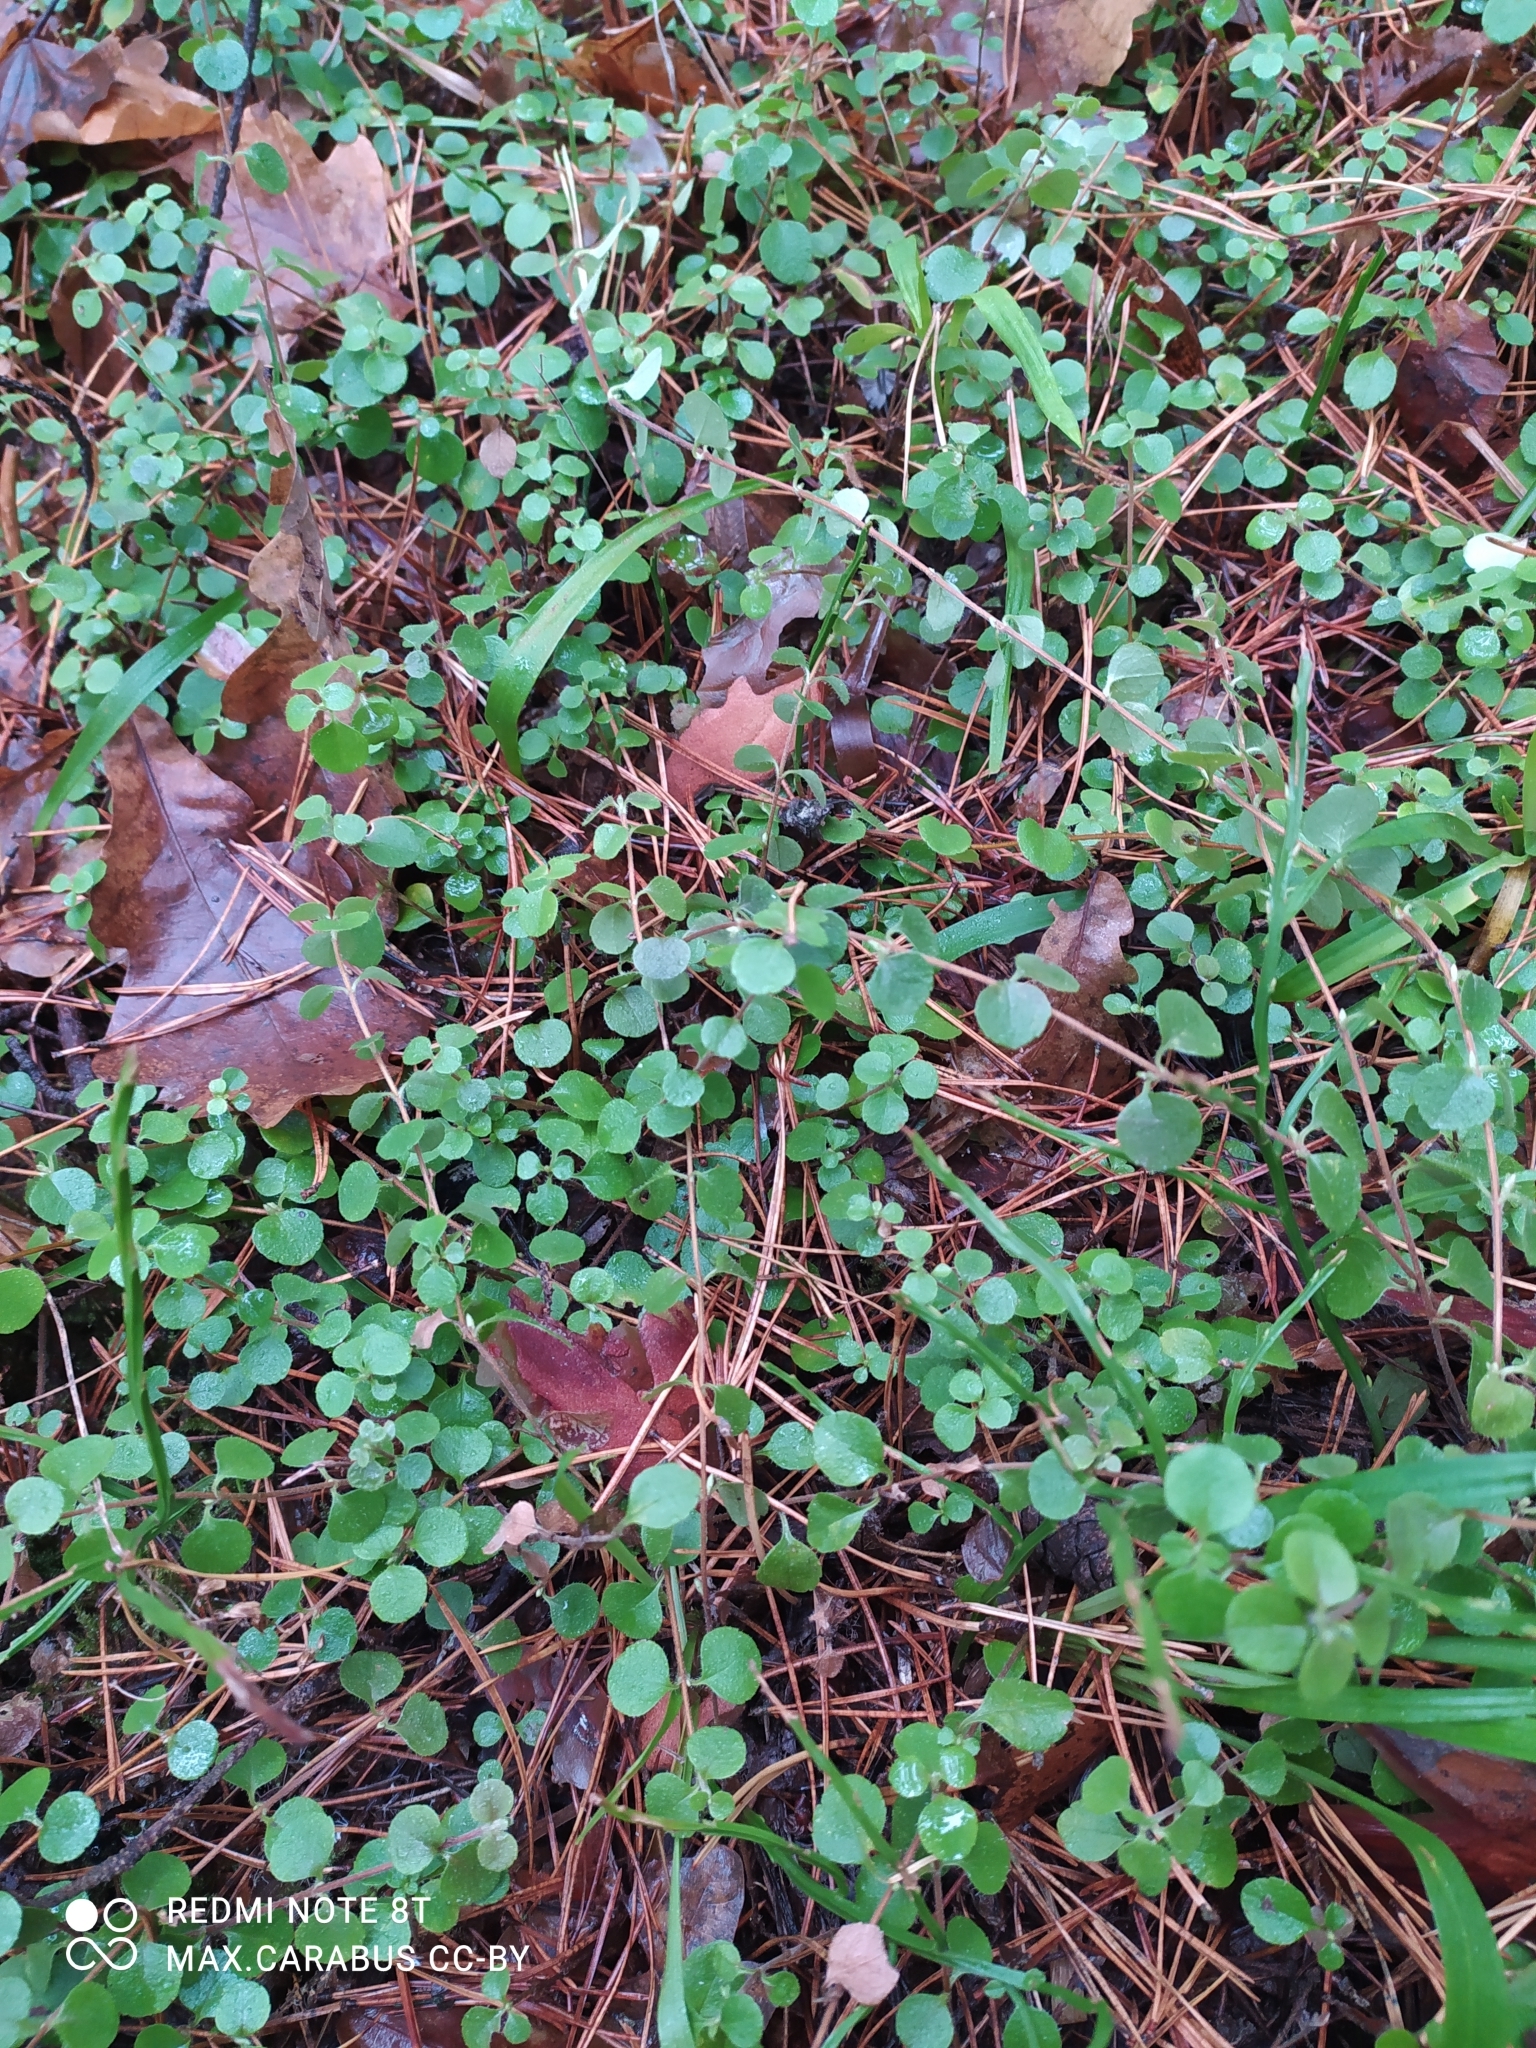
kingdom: Plantae
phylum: Tracheophyta
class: Magnoliopsida
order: Dipsacales
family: Caprifoliaceae
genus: Linnaea
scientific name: Linnaea borealis
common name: Twinflower
